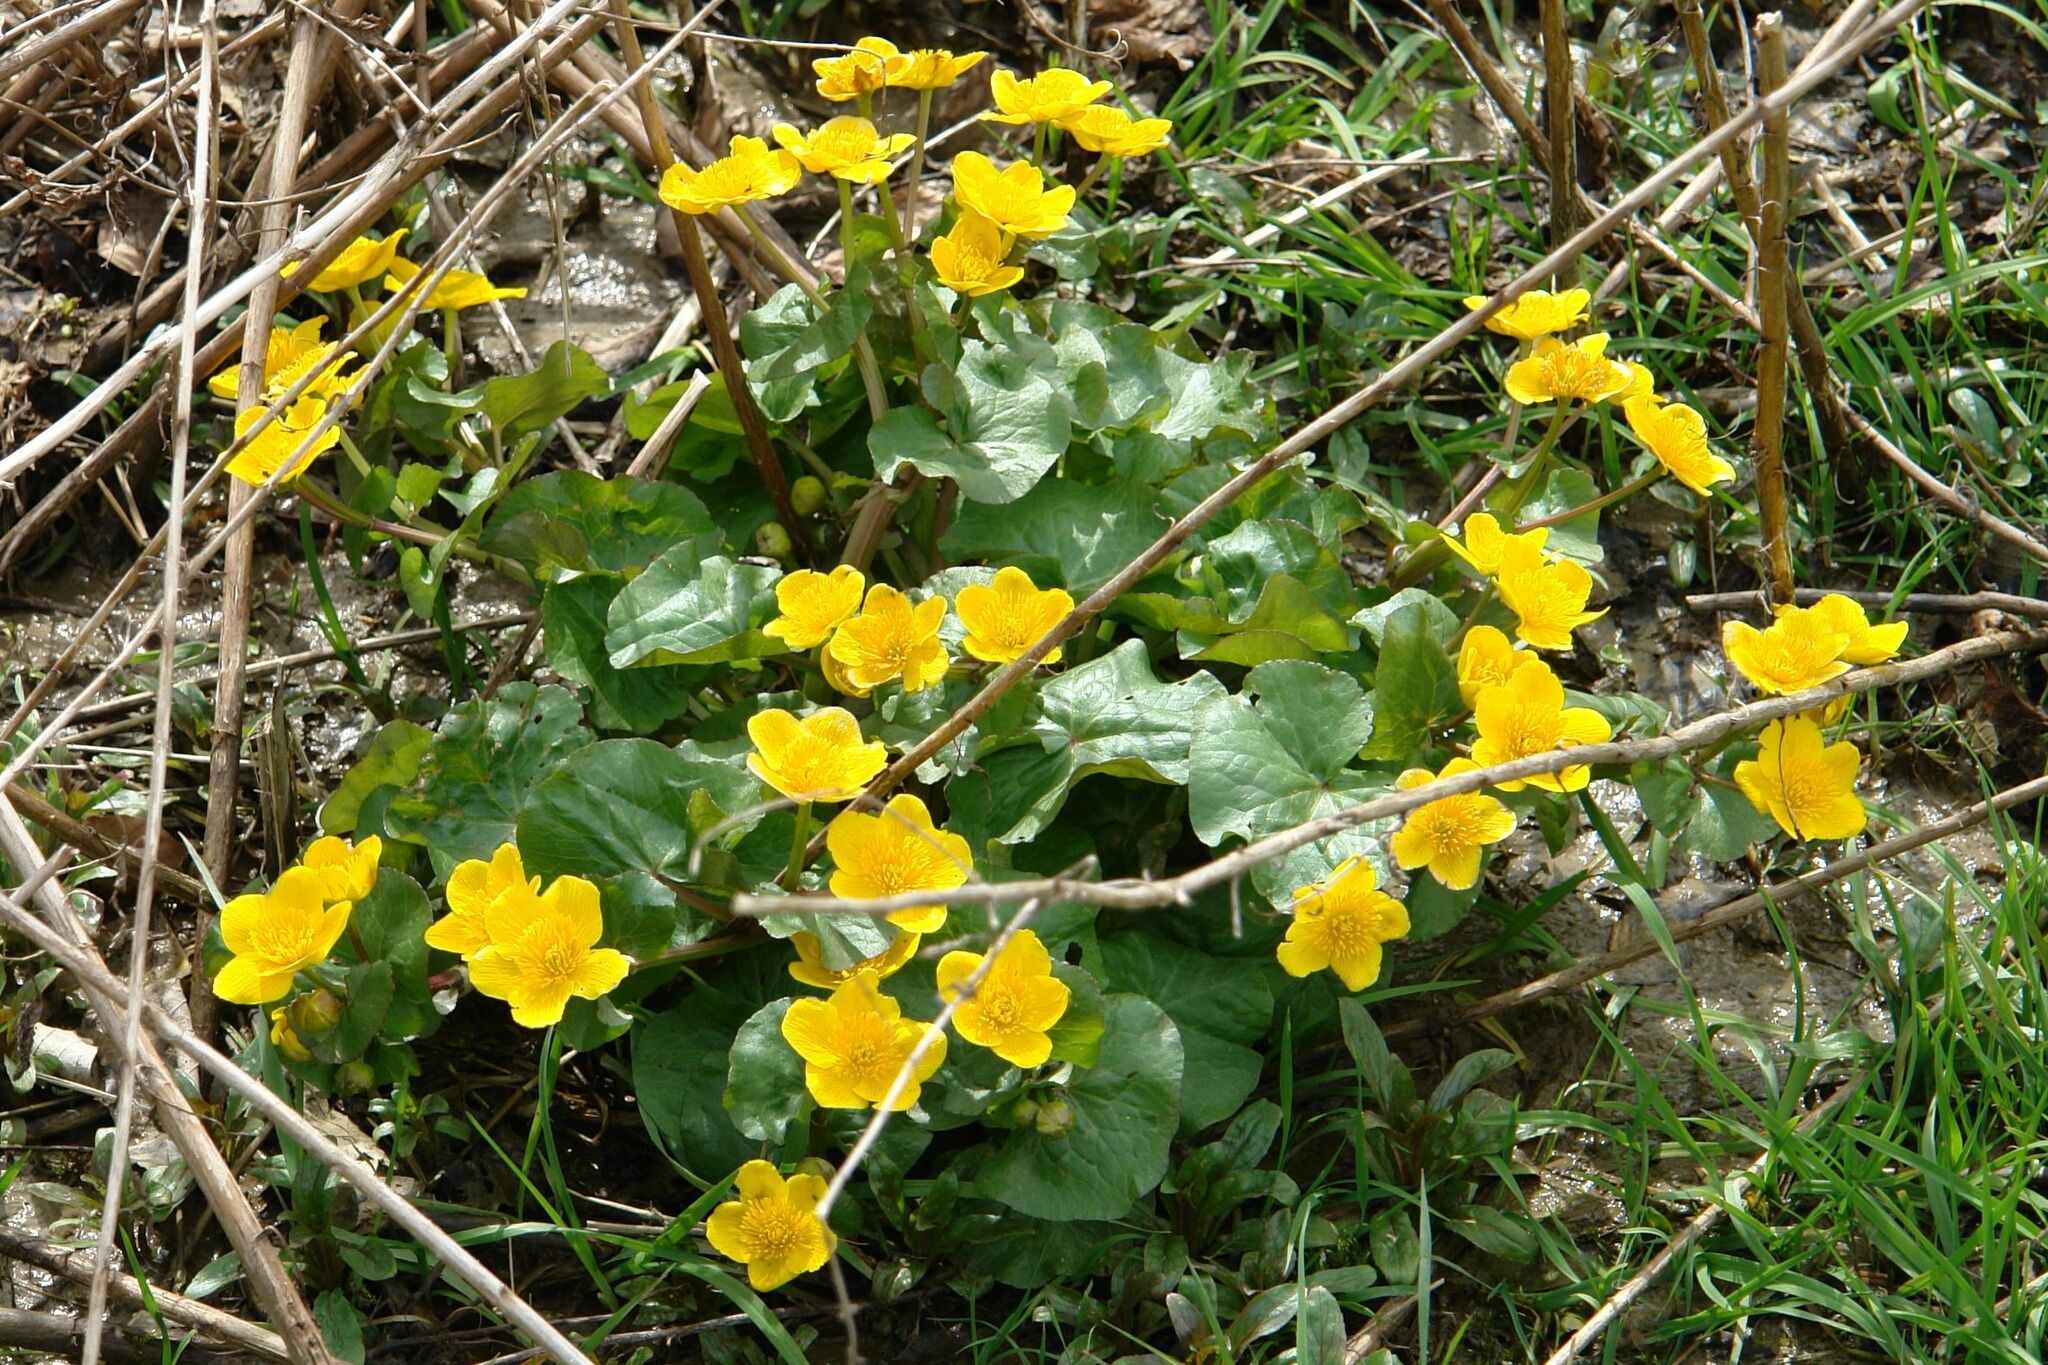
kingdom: Plantae
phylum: Tracheophyta
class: Magnoliopsida
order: Ranunculales
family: Ranunculaceae
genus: Caltha
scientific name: Caltha palustris
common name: Marsh marigold
